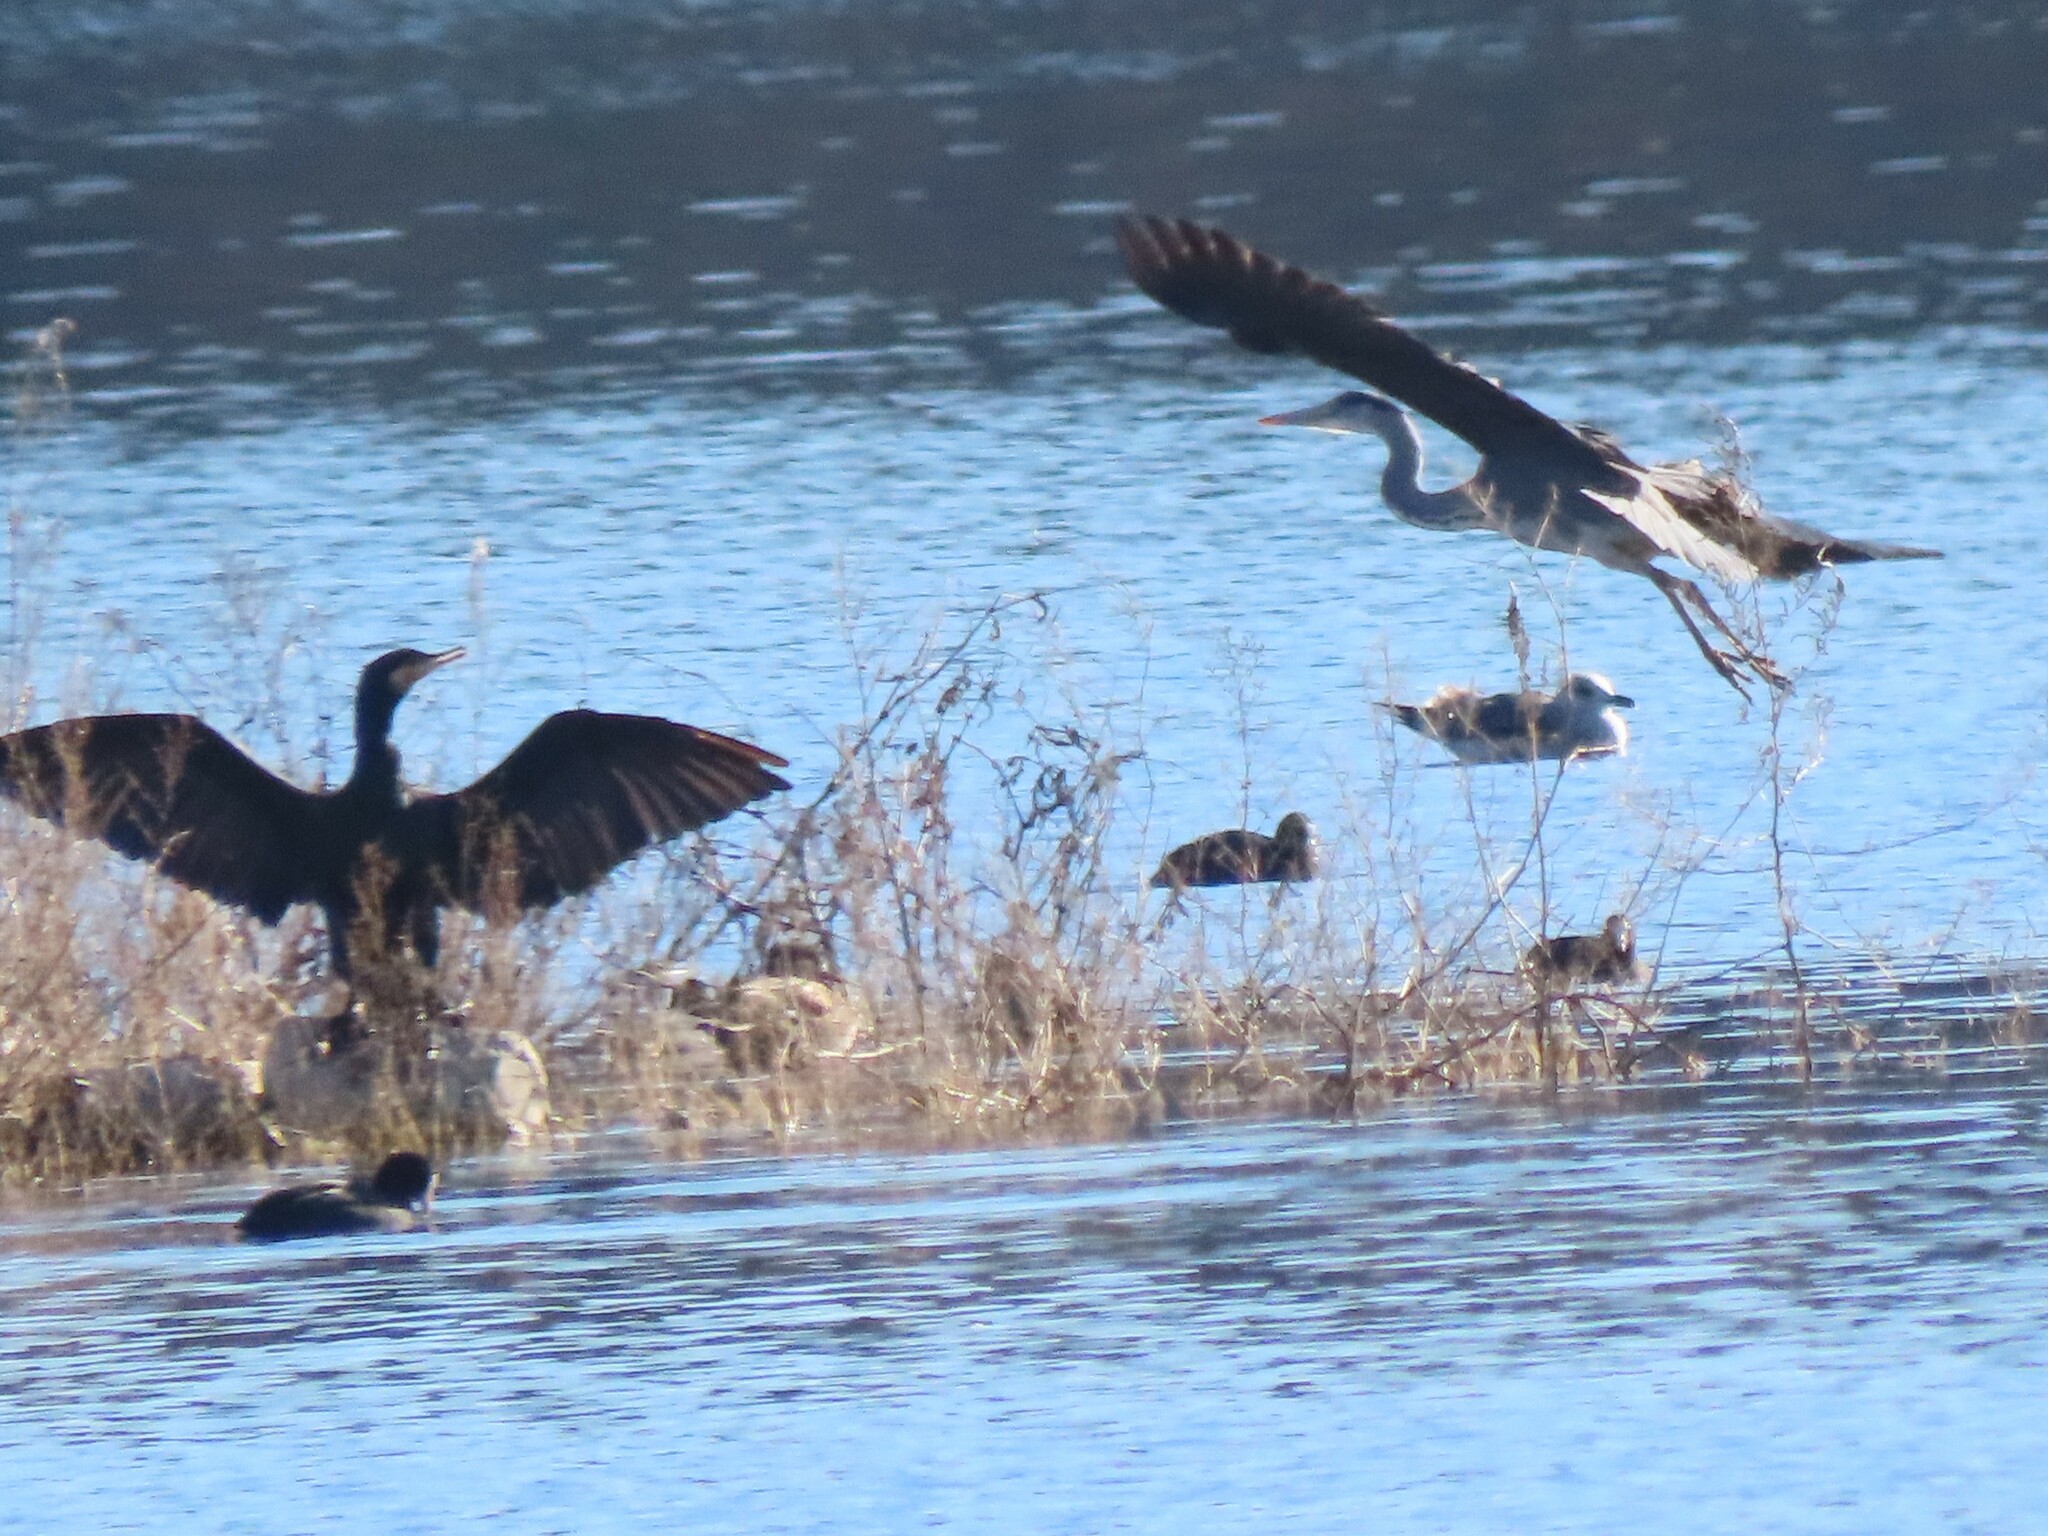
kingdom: Animalia
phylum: Chordata
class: Aves
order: Pelecaniformes
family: Ardeidae
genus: Ardea
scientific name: Ardea cinerea
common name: Grey heron
